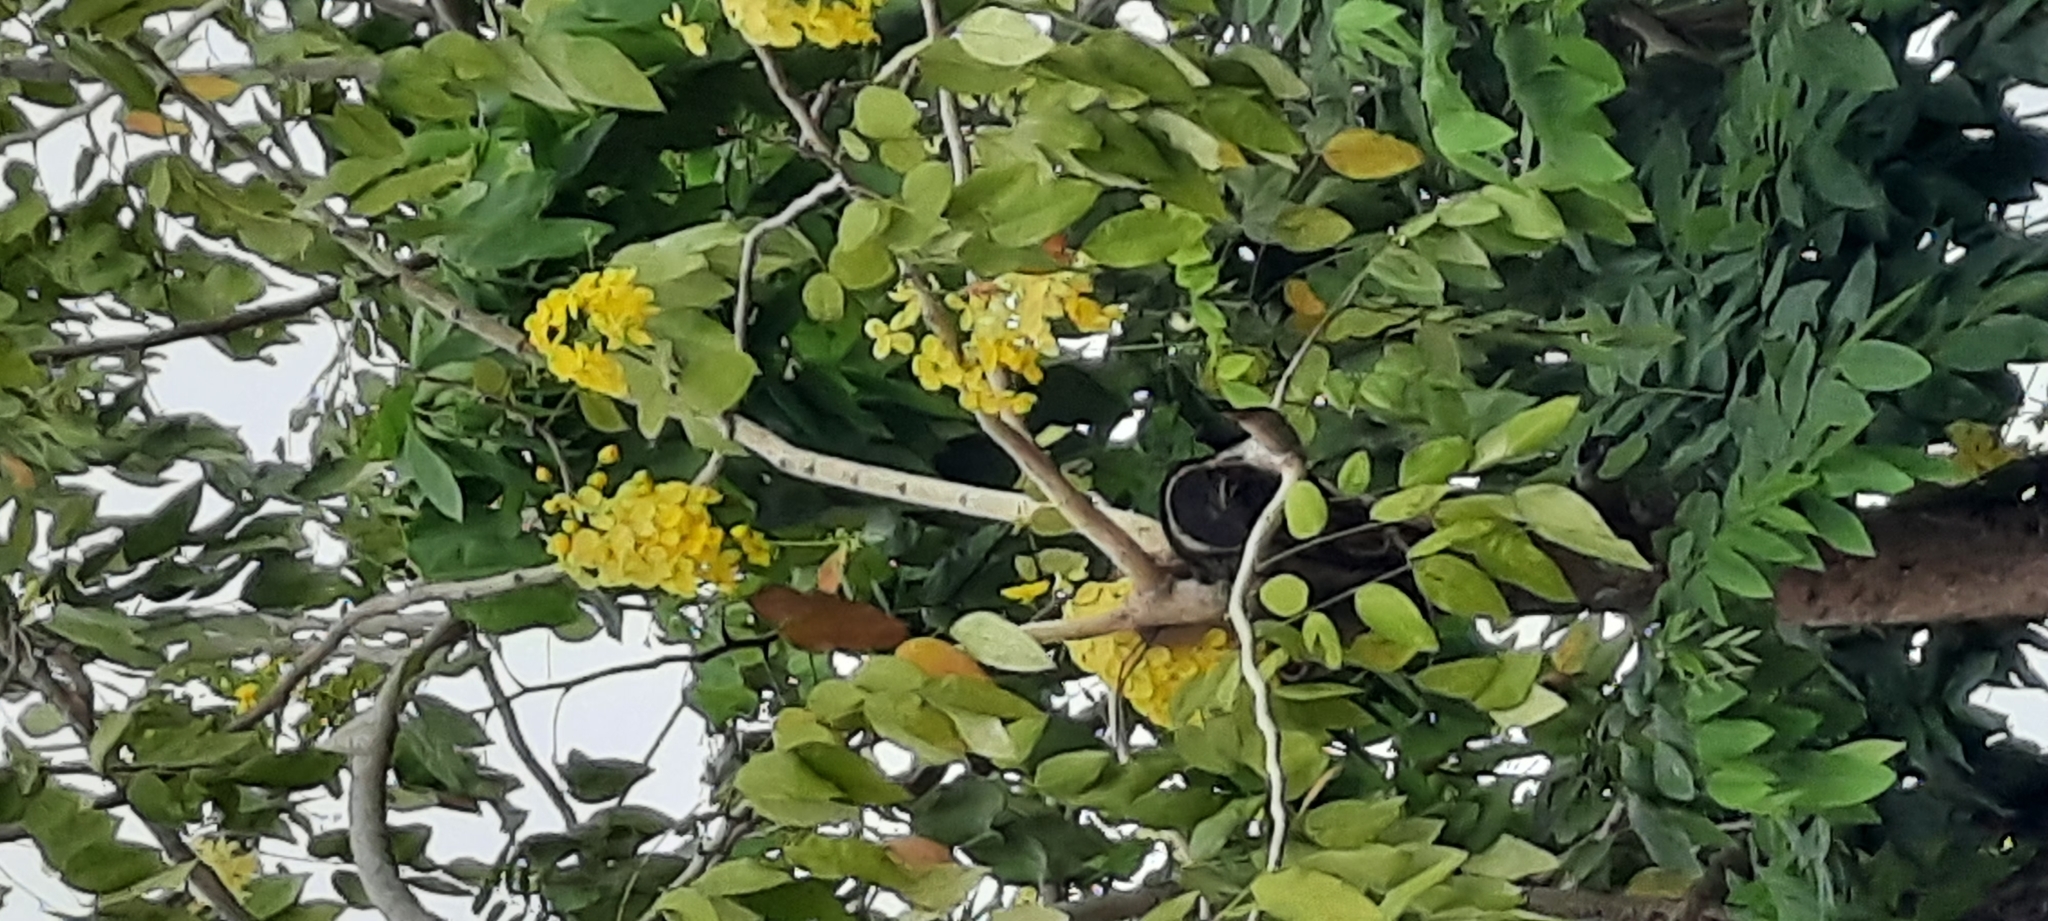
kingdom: Plantae
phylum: Tracheophyta
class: Magnoliopsida
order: Fabales
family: Fabaceae
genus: Cassia
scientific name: Cassia fistula
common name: Golden shower
